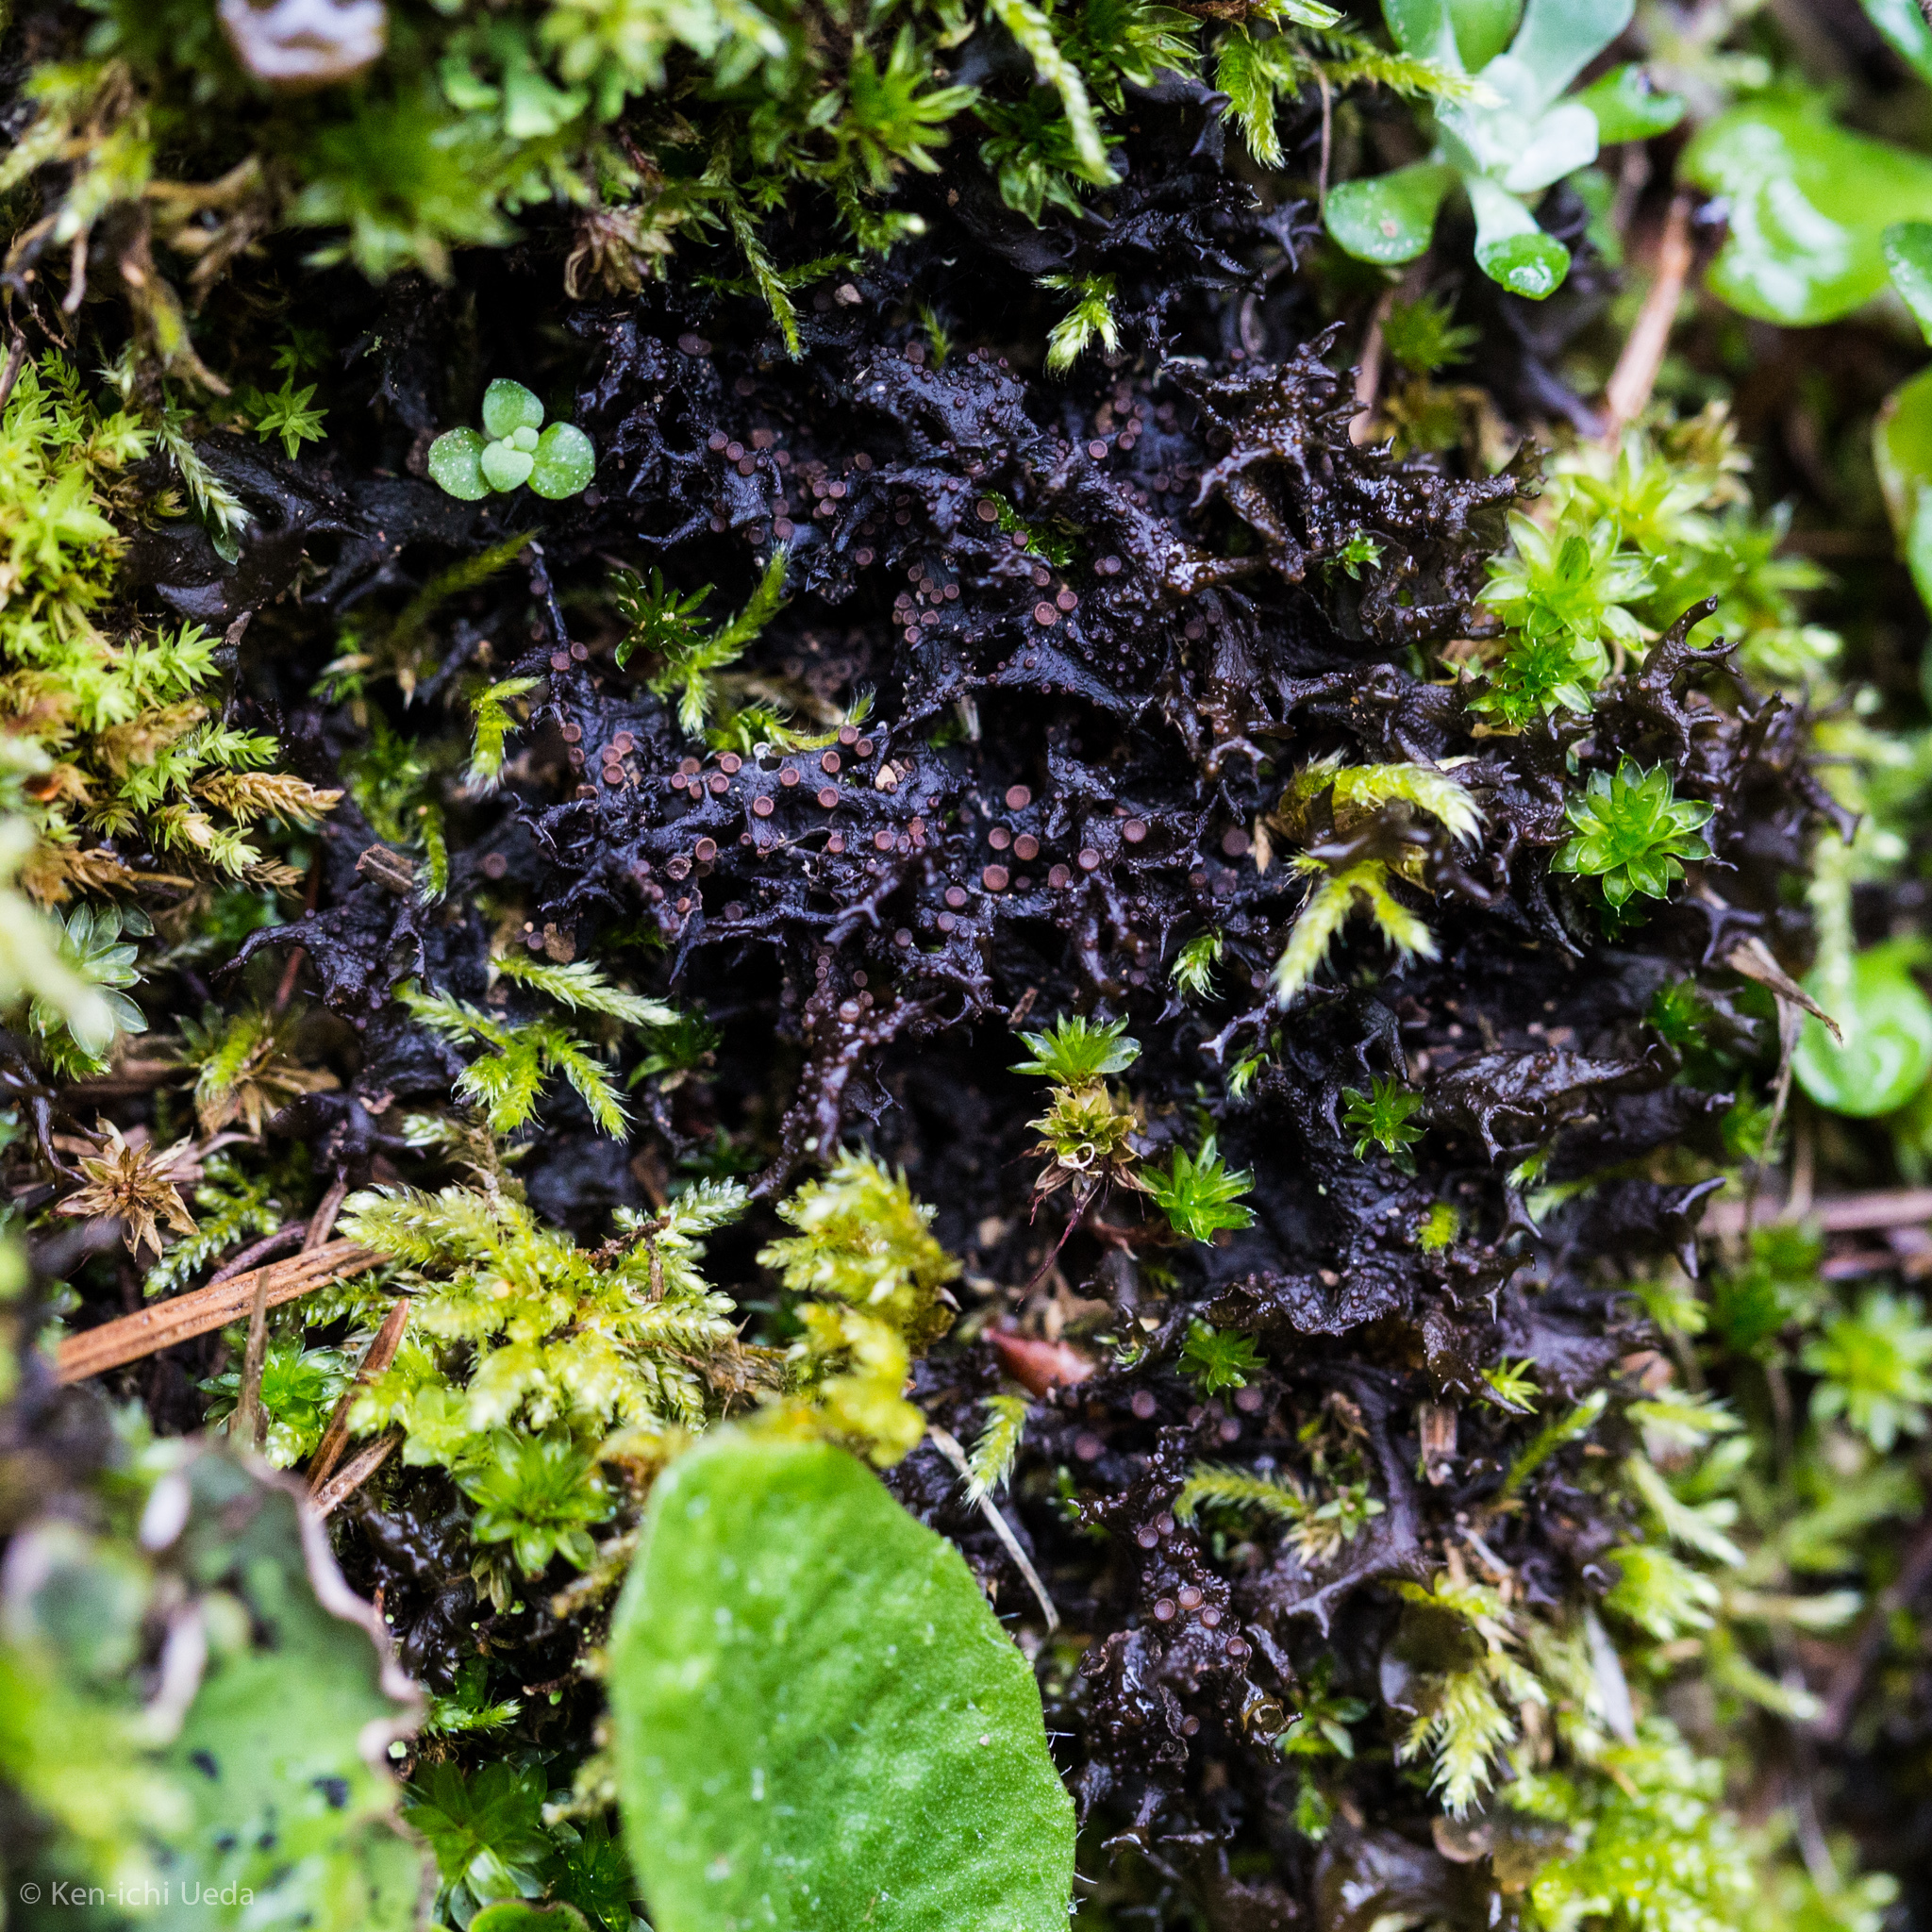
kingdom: Fungi
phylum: Ascomycota
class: Lecanoromycetes
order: Peltigerales
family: Collemataceae
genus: Scytinium
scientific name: Scytinium palmatum
